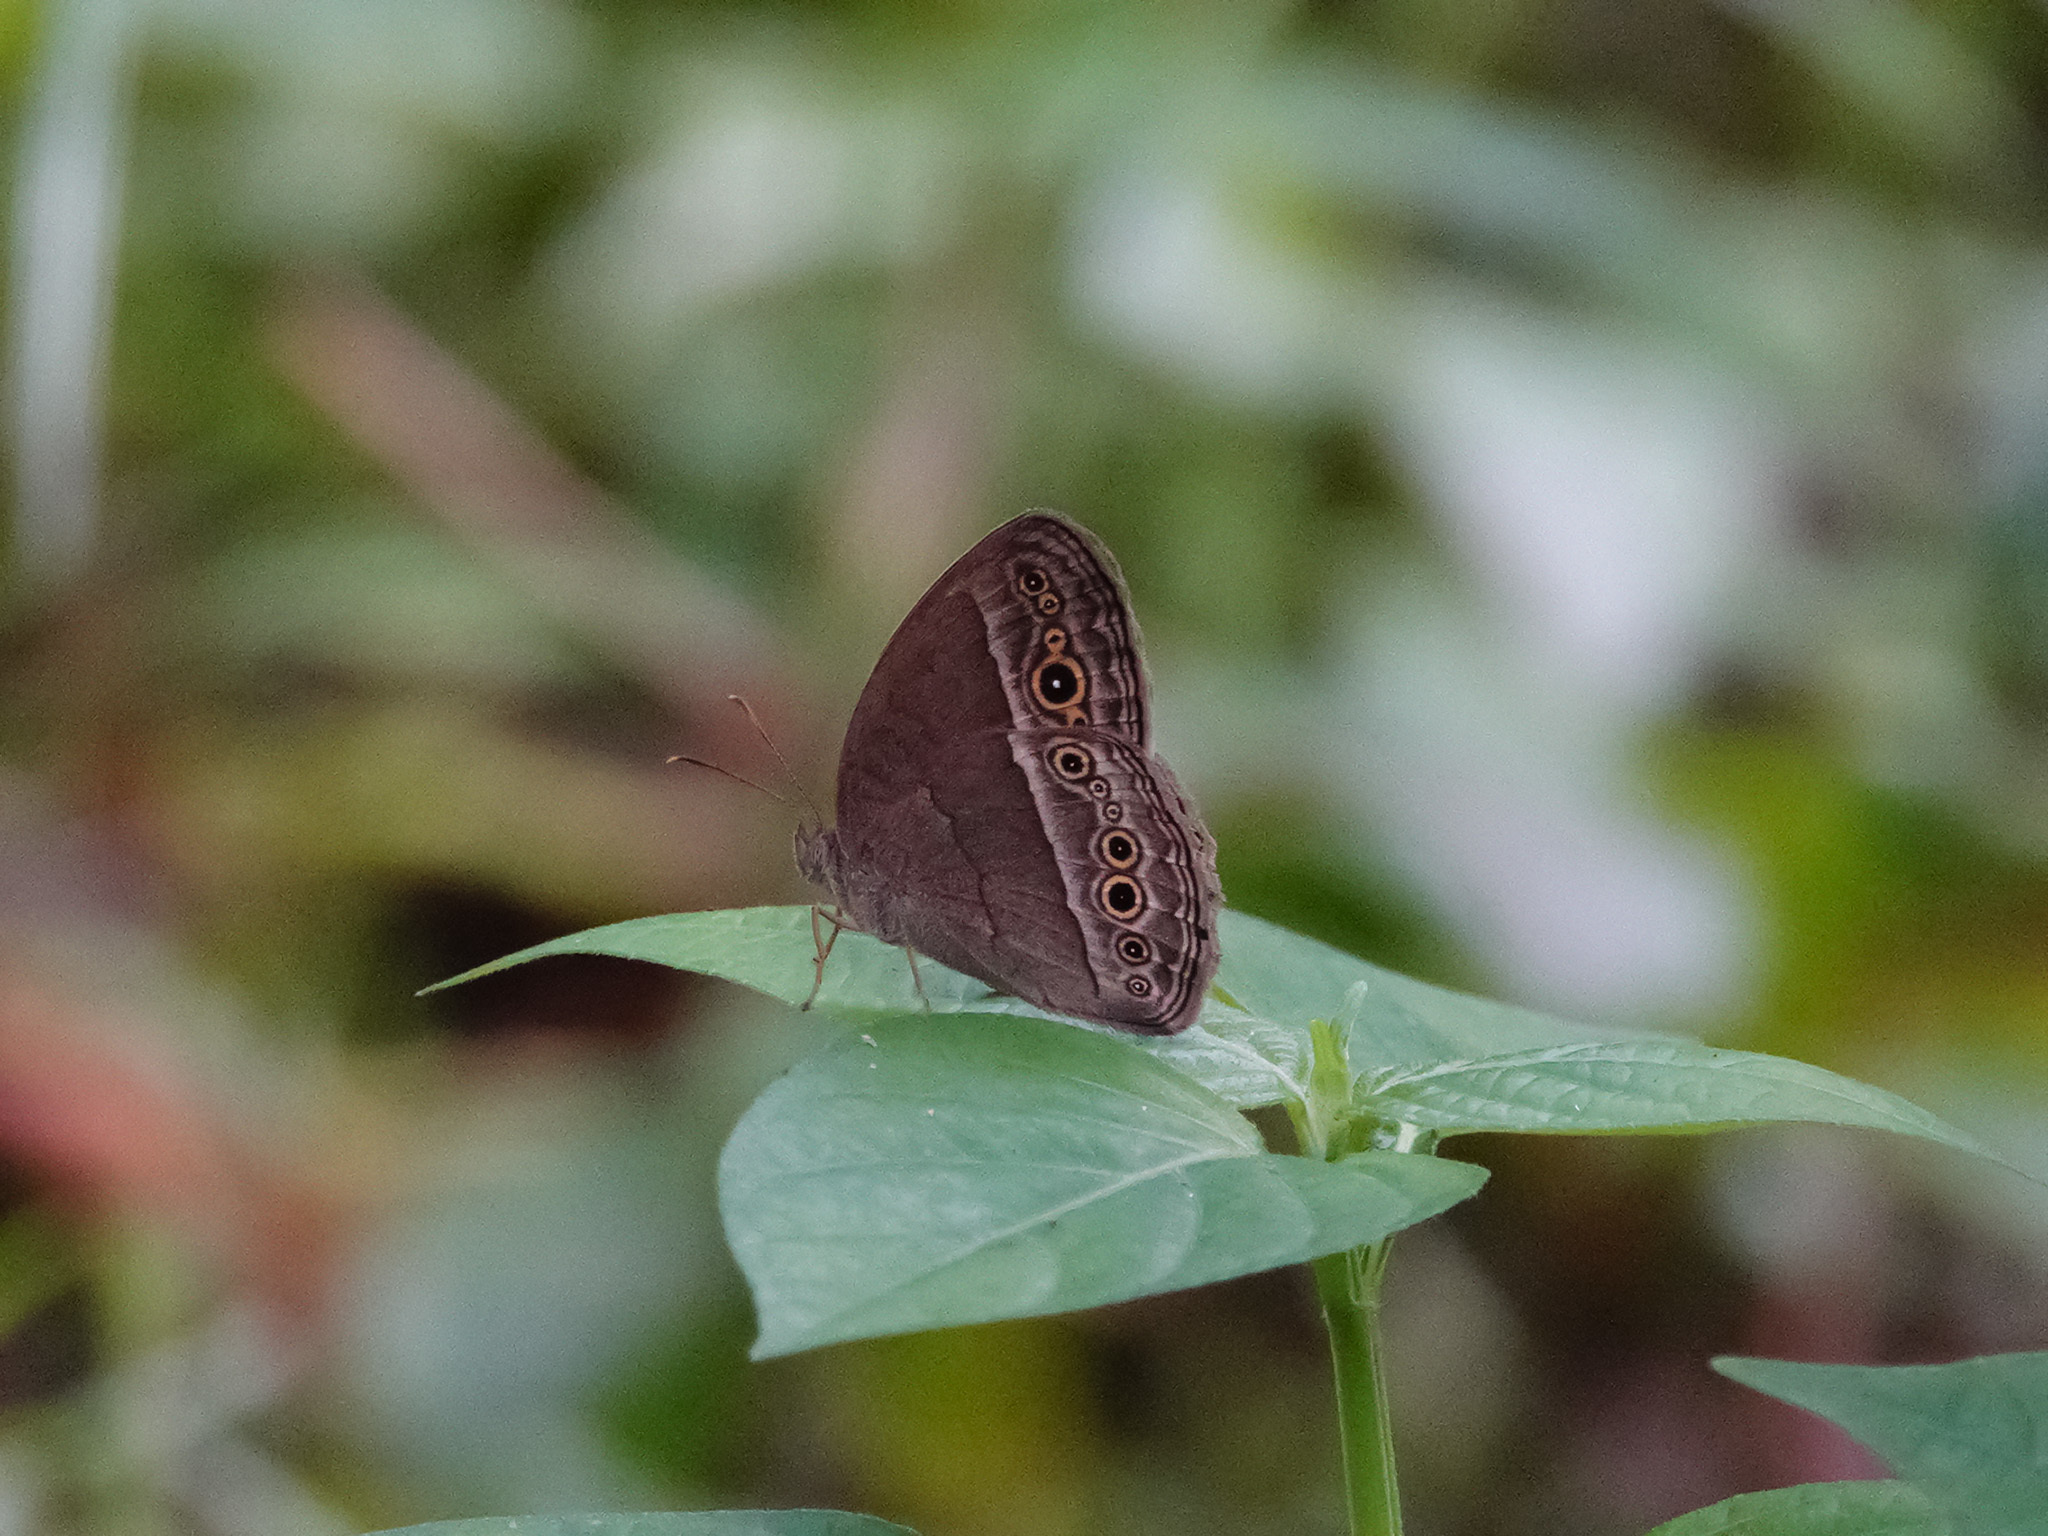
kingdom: Animalia
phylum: Arthropoda
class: Insecta
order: Lepidoptera
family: Nymphalidae
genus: Mycalesis
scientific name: Mycalesis perseoides
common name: Burmese bushbrown
